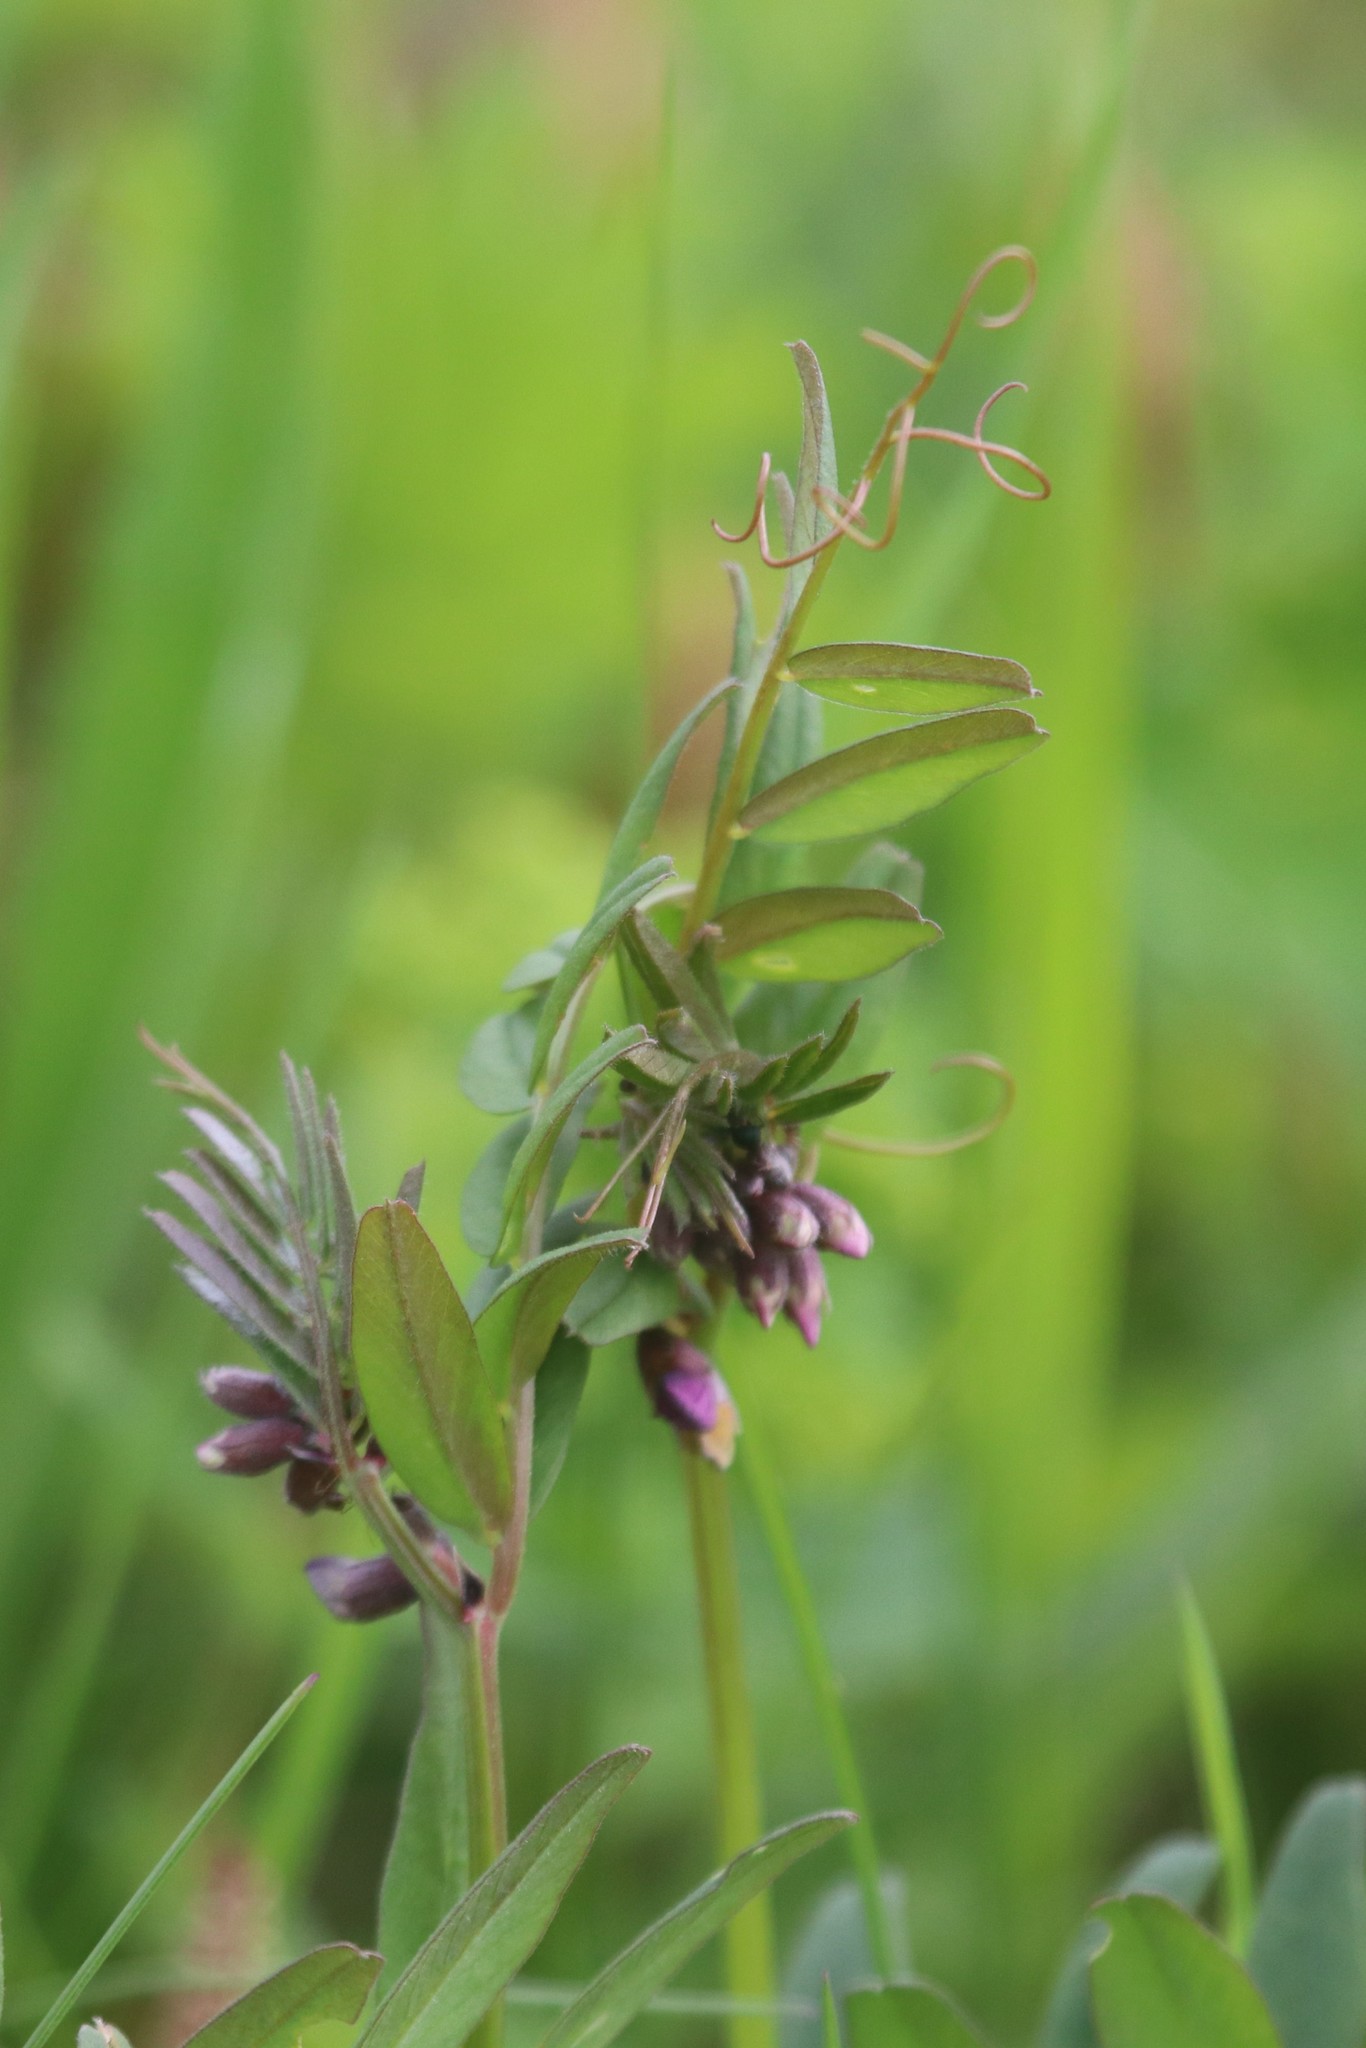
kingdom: Plantae
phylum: Tracheophyta
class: Magnoliopsida
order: Fabales
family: Fabaceae
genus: Vicia
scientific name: Vicia sepium
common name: Bush vetch
